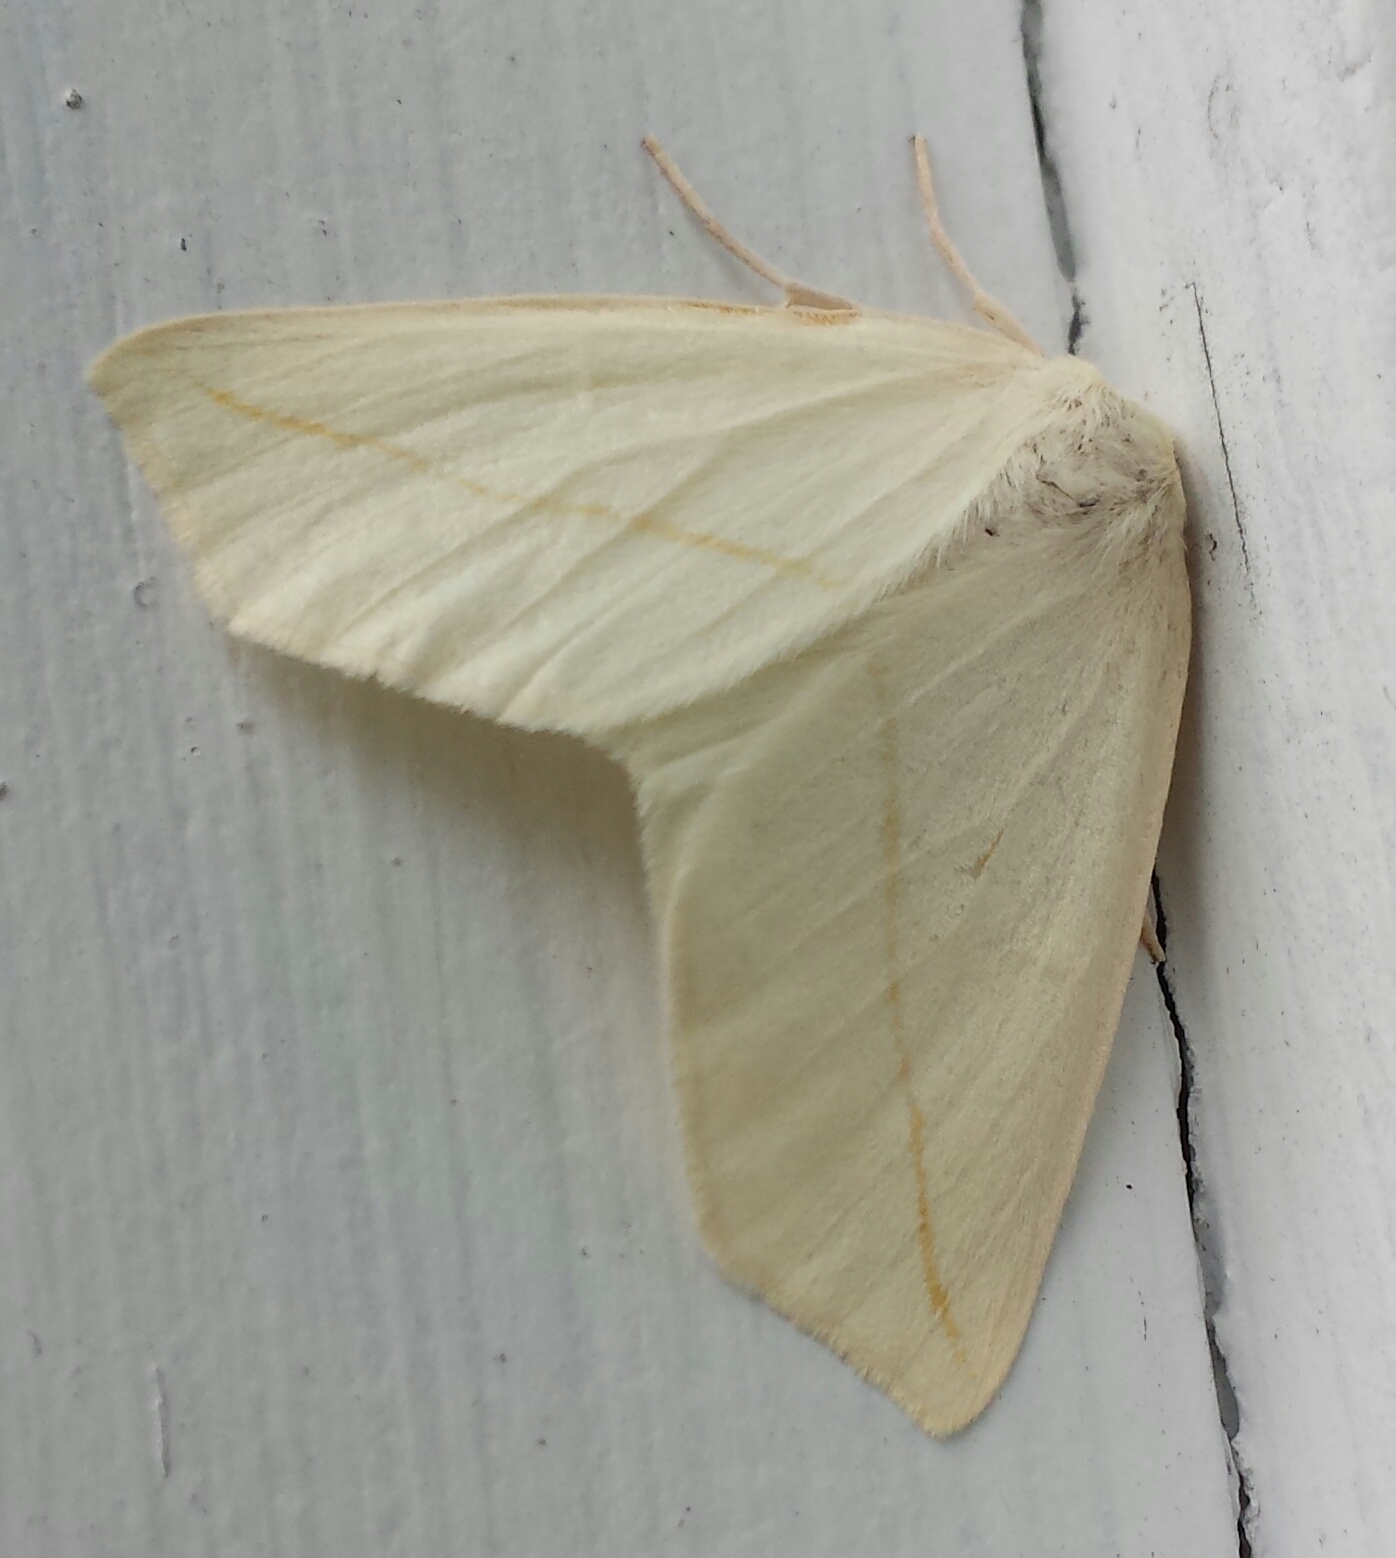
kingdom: Animalia
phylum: Arthropoda
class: Insecta
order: Lepidoptera
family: Geometridae
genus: Tetracis
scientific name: Tetracis cachexiata
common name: White slant-line
